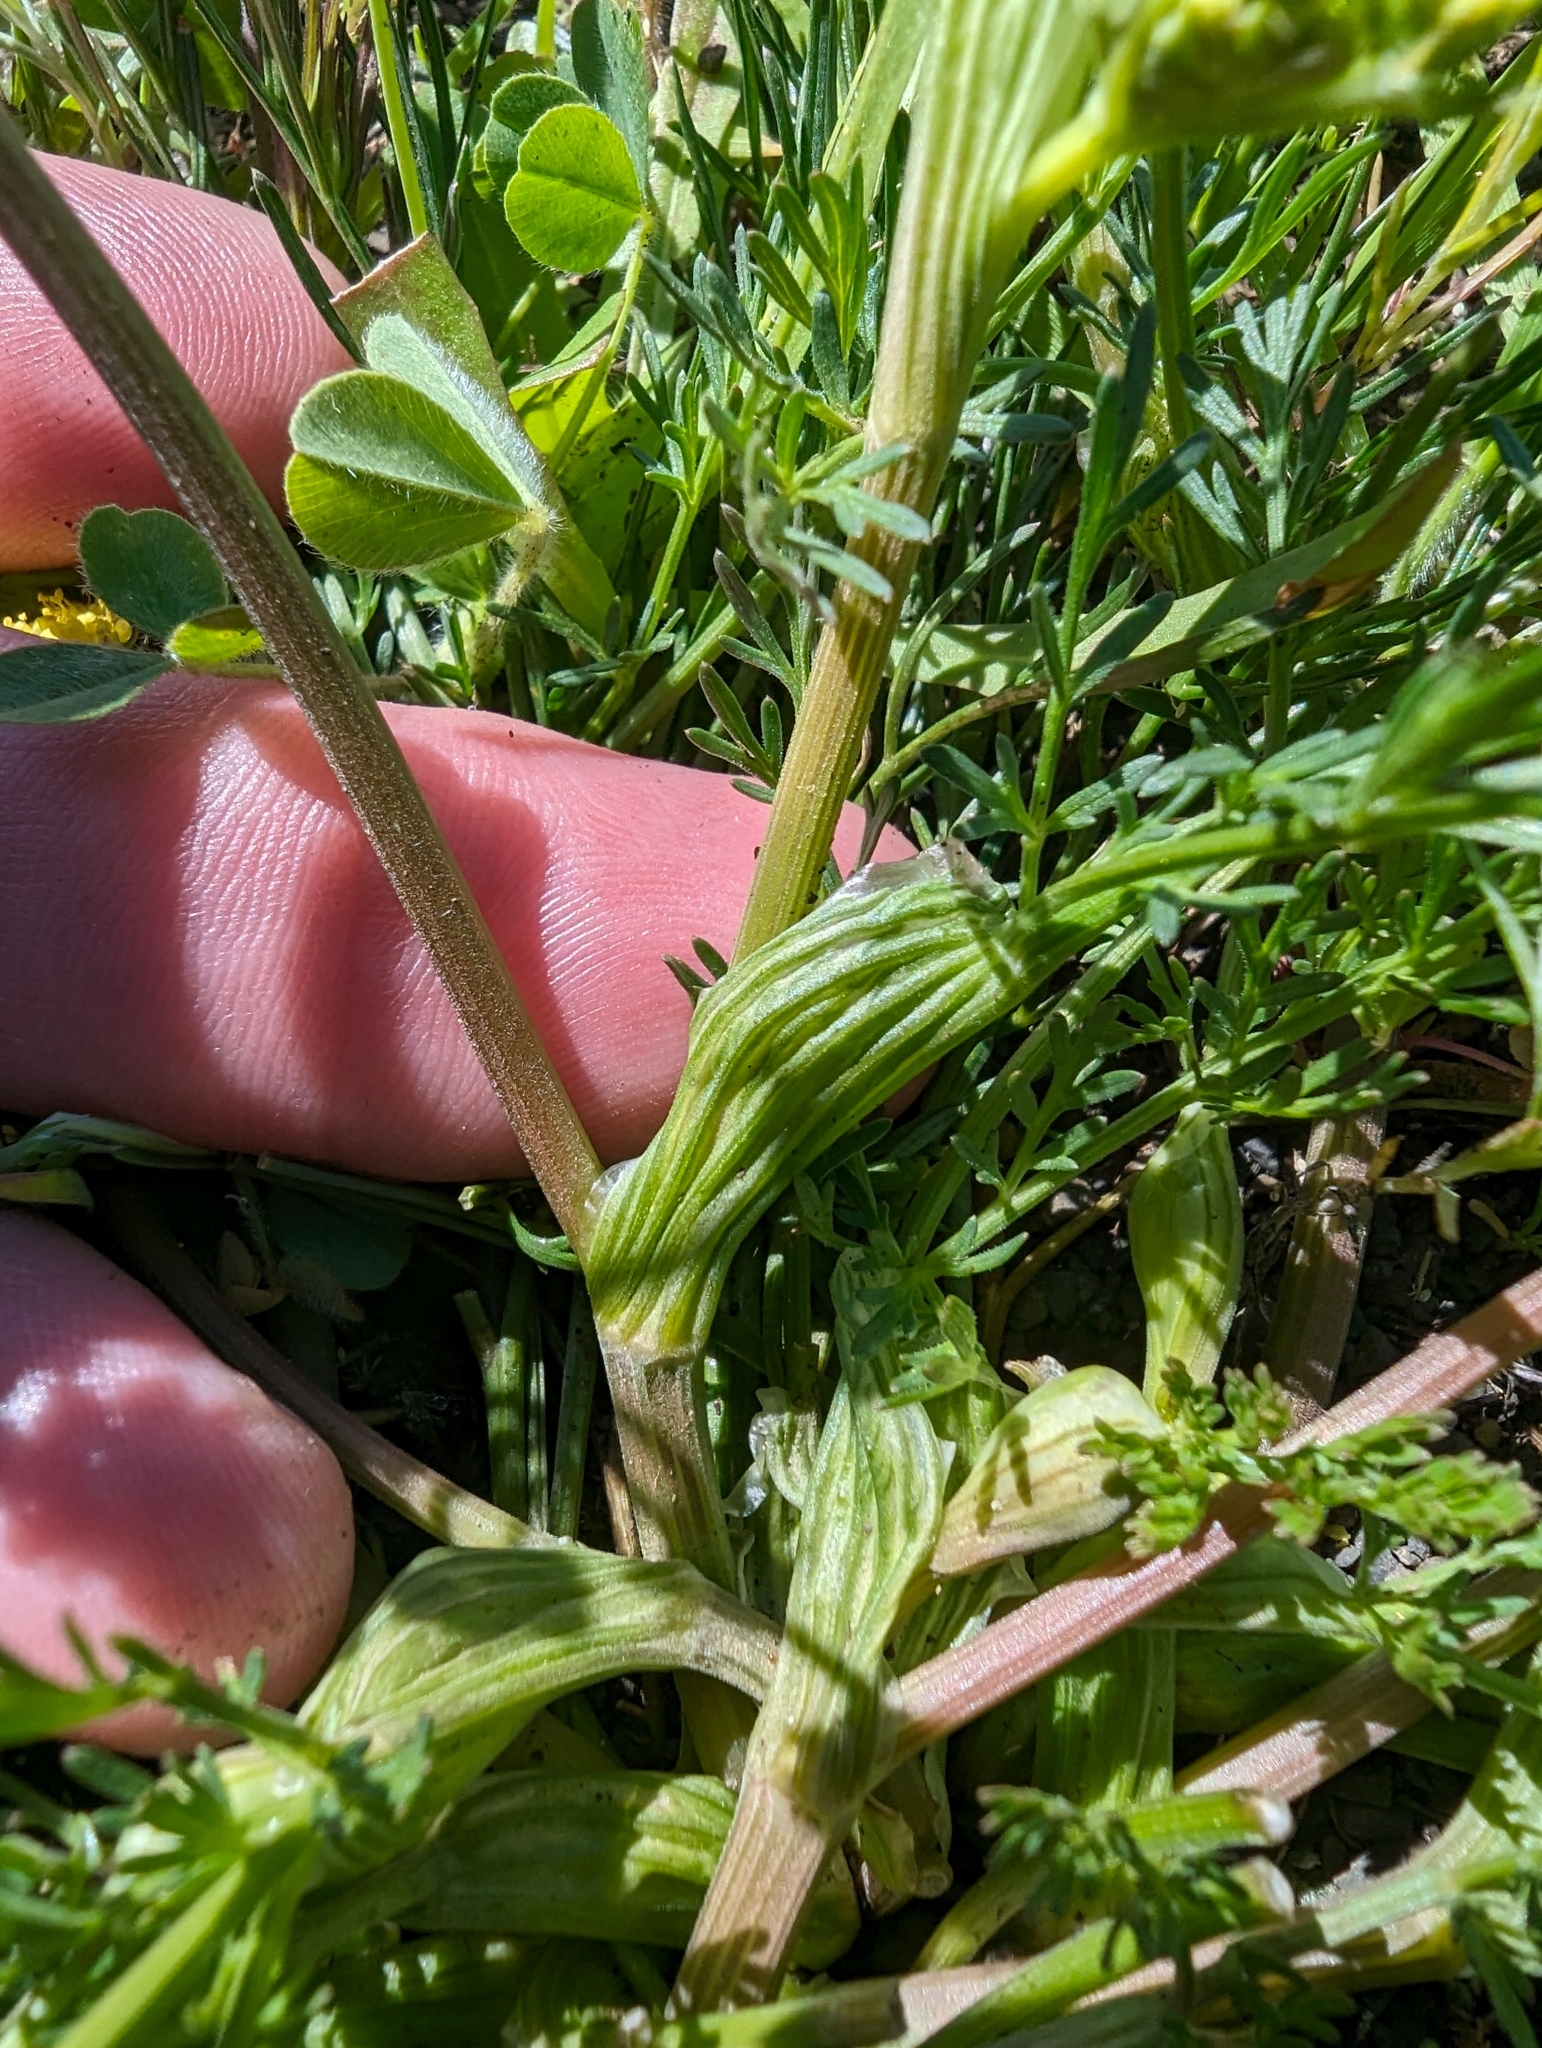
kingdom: Plantae
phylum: Tracheophyta
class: Magnoliopsida
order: Apiales
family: Apiaceae
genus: Lomatium
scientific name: Lomatium utriculatum
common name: Fine-leaf desert-parsley
